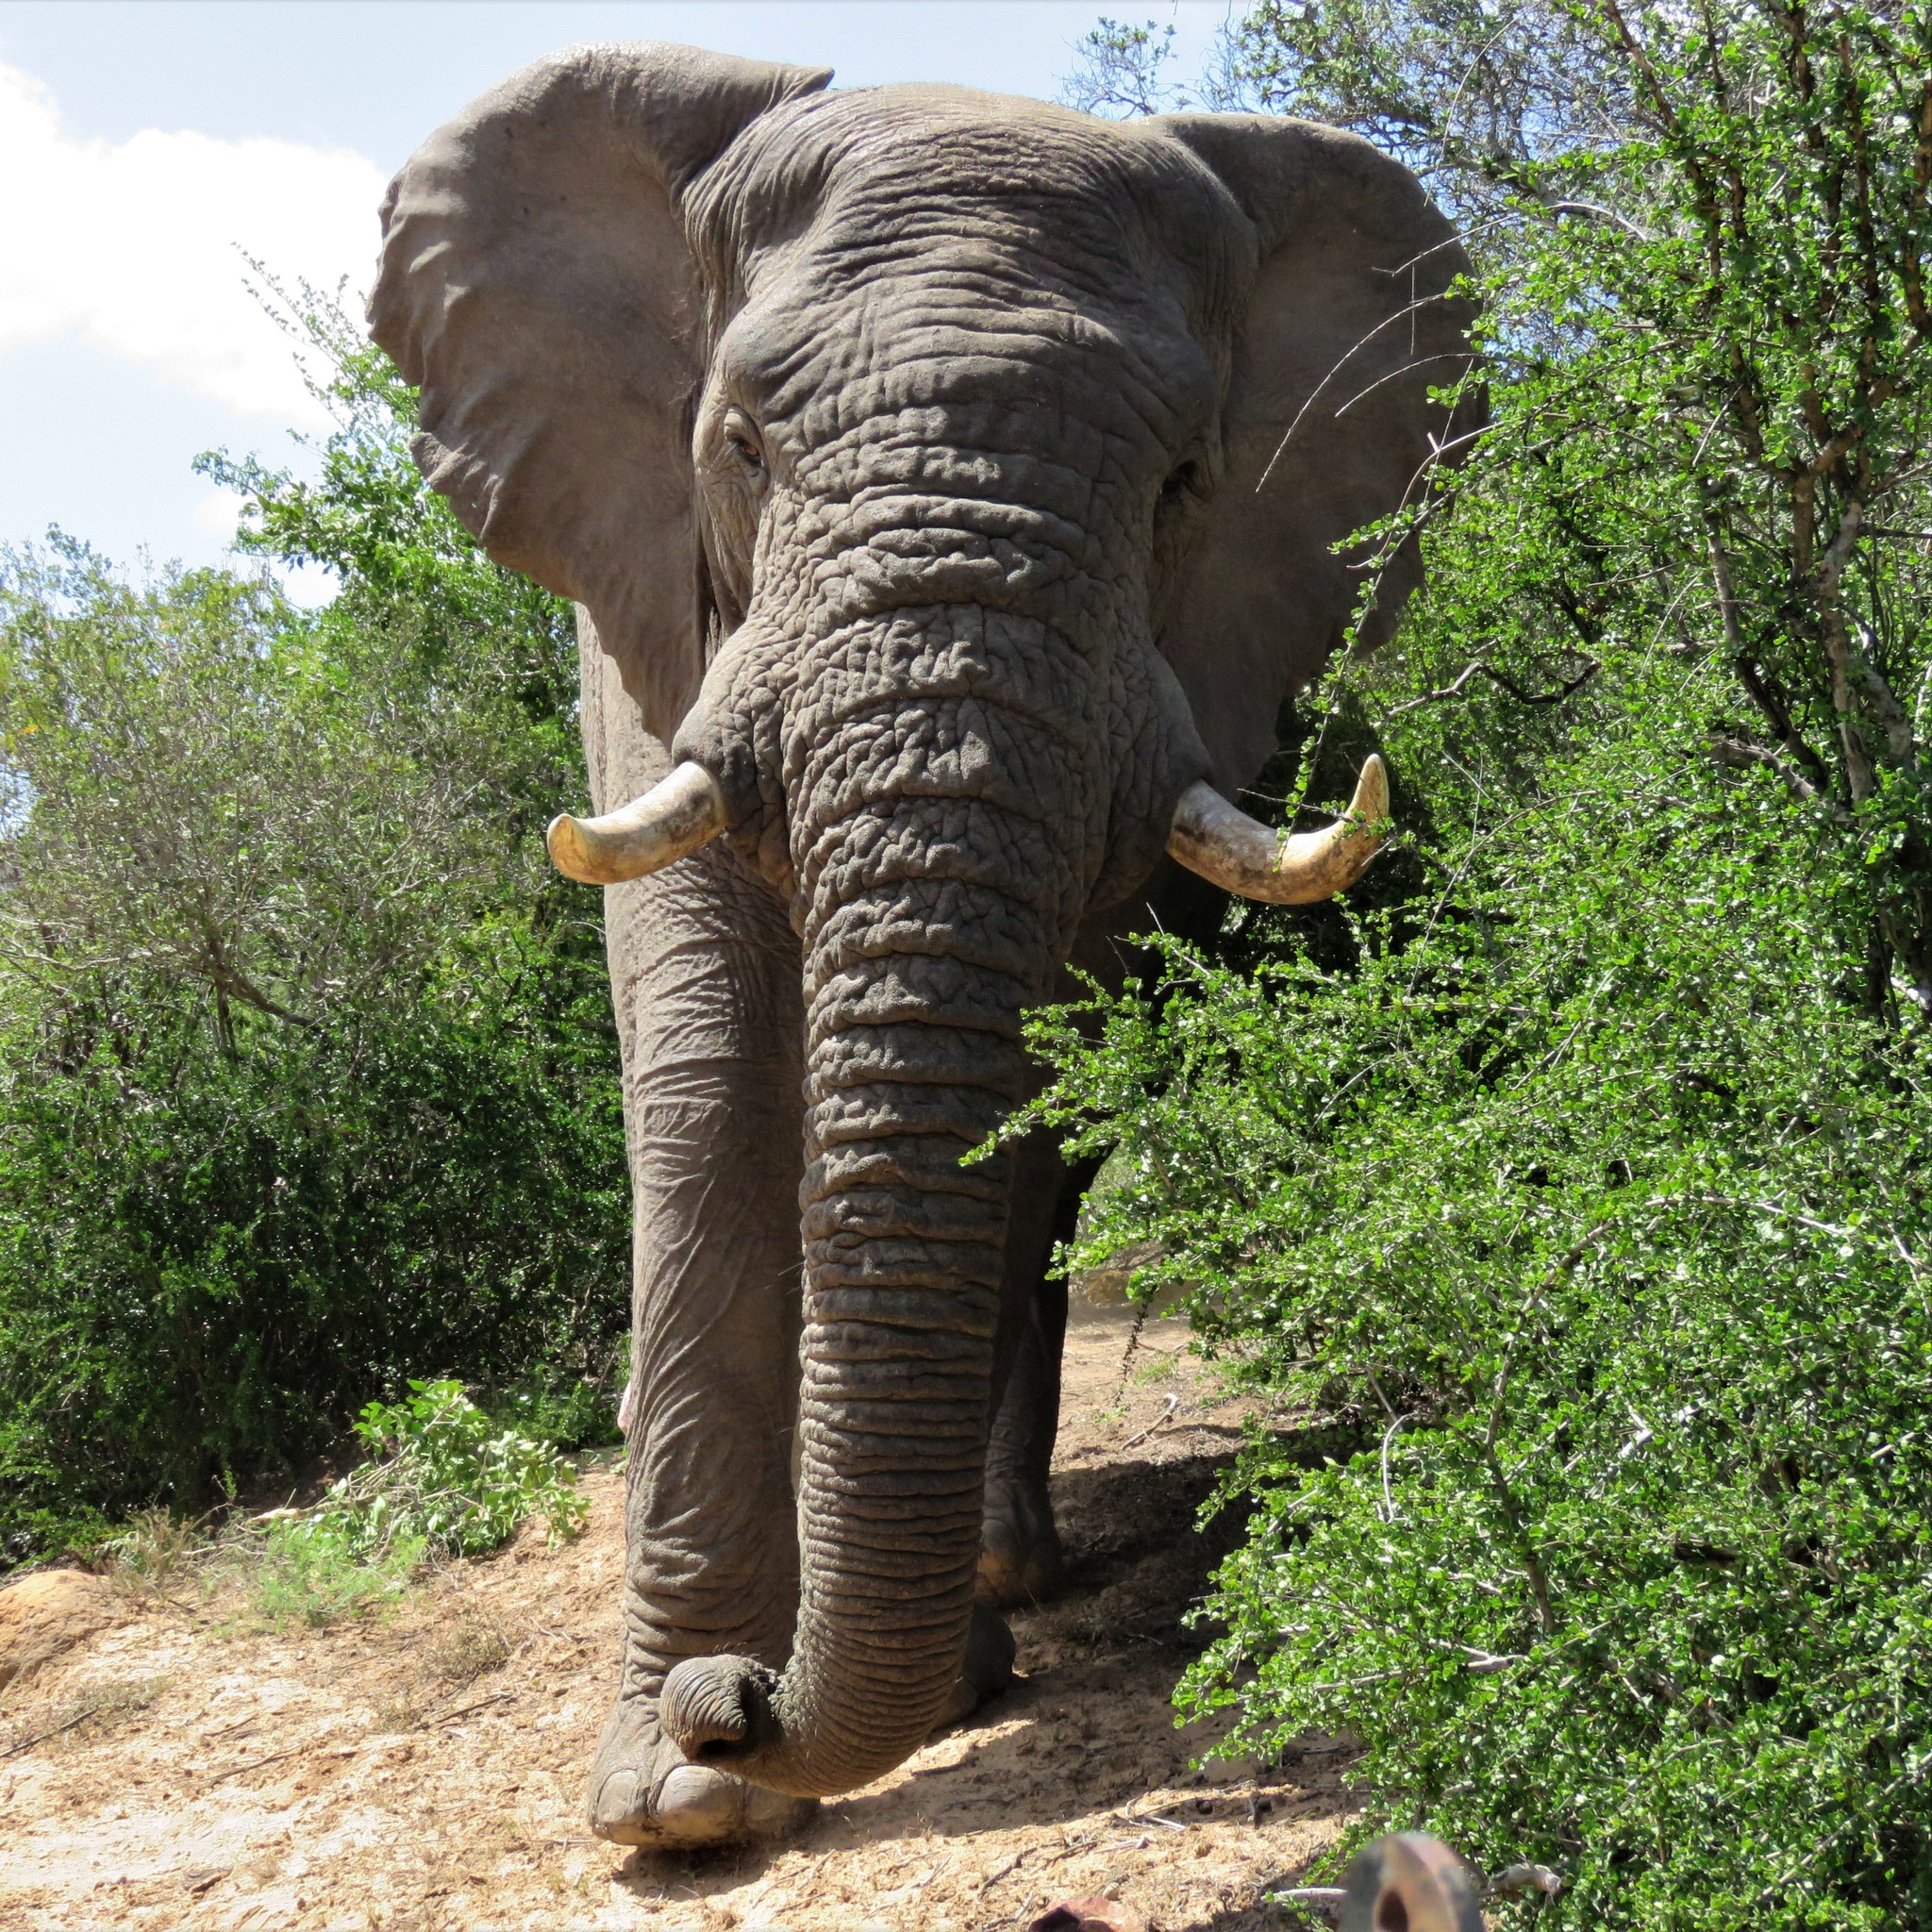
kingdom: Animalia
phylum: Chordata
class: Mammalia
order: Proboscidea
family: Elephantidae
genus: Loxodonta
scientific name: Loxodonta africana
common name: African elephant
